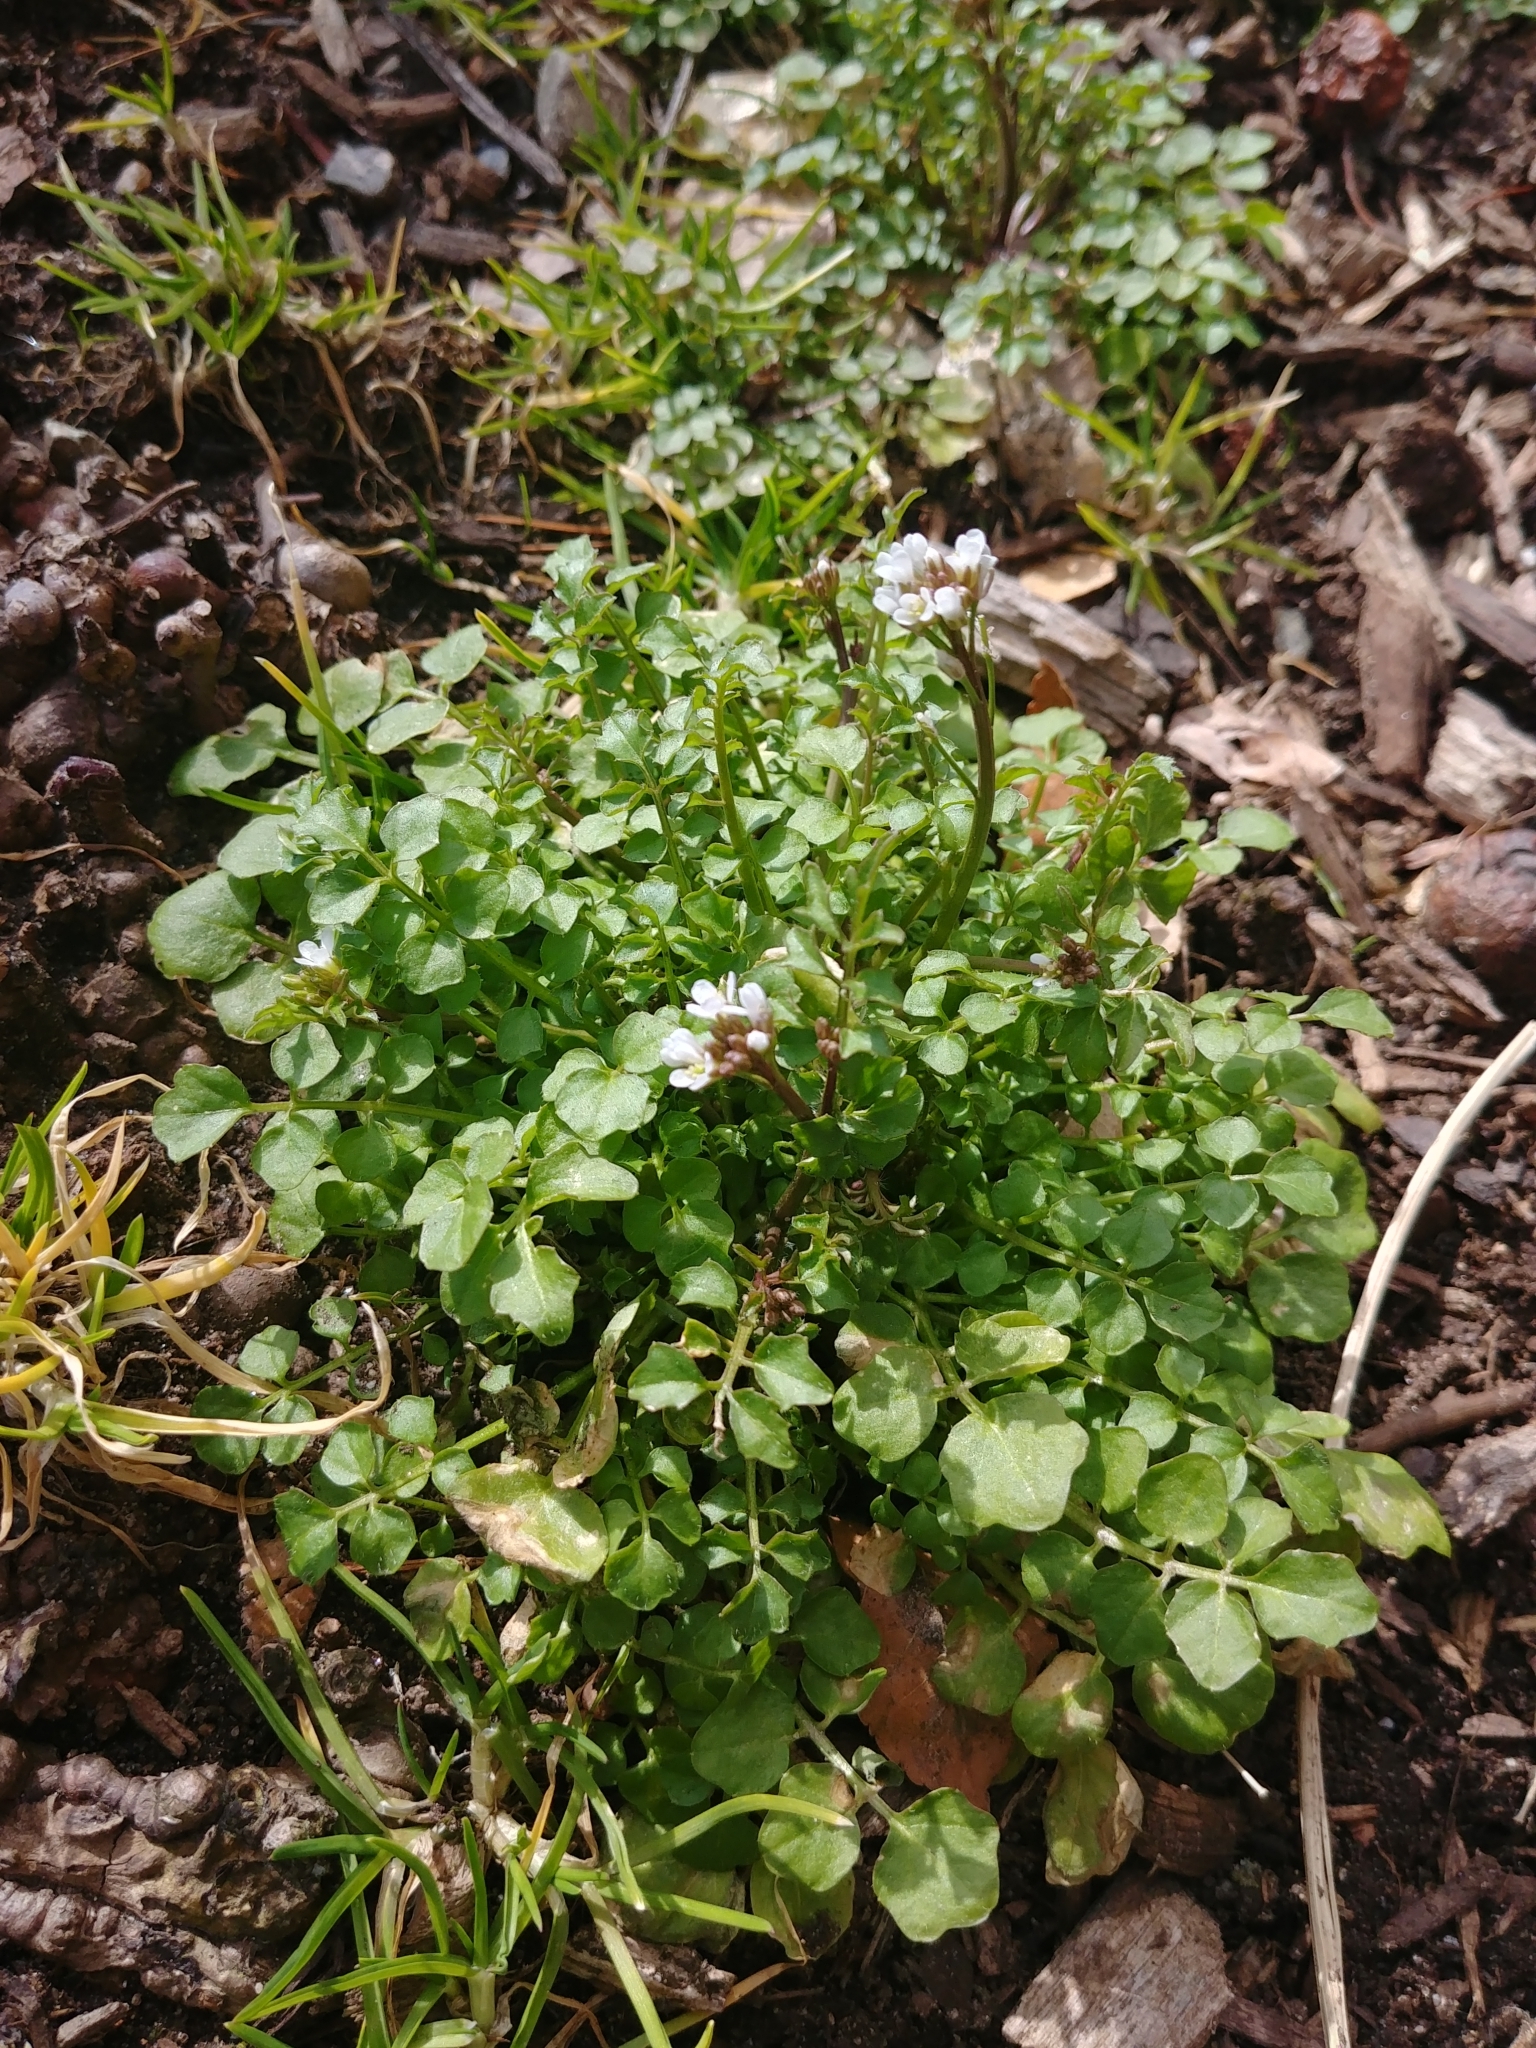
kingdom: Plantae
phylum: Tracheophyta
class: Magnoliopsida
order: Brassicales
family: Brassicaceae
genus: Cardamine
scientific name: Cardamine hirsuta
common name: Hairy bittercress
